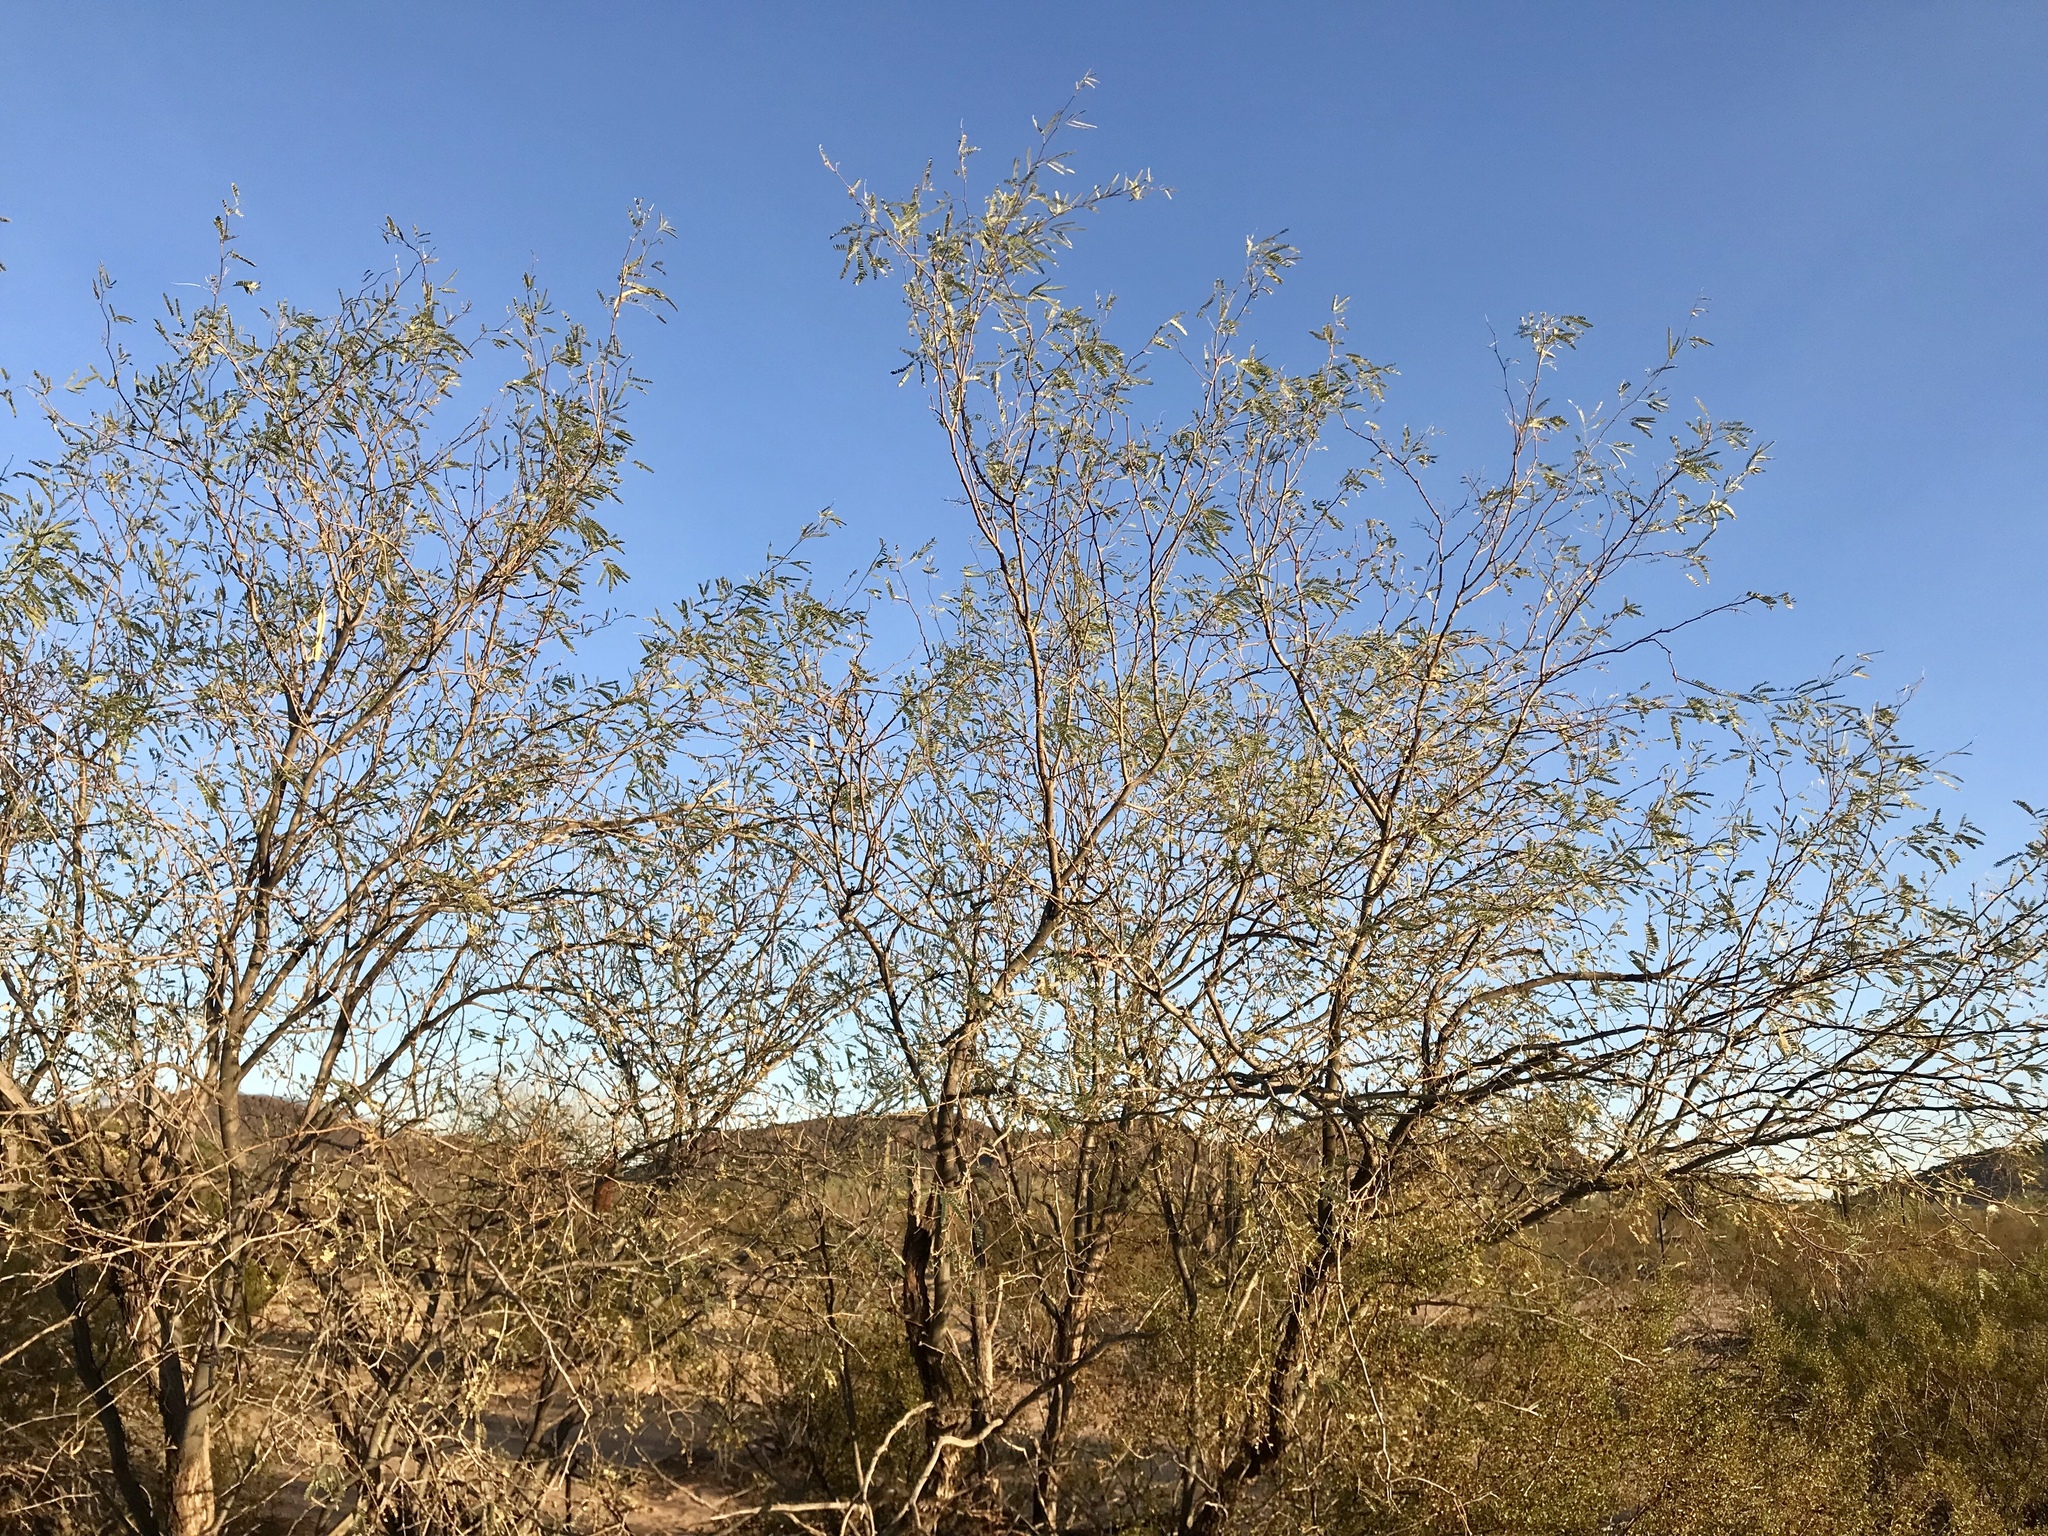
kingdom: Plantae
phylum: Tracheophyta
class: Magnoliopsida
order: Fabales
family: Fabaceae
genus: Prosopis
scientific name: Prosopis velutina
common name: Velvet mesquite
